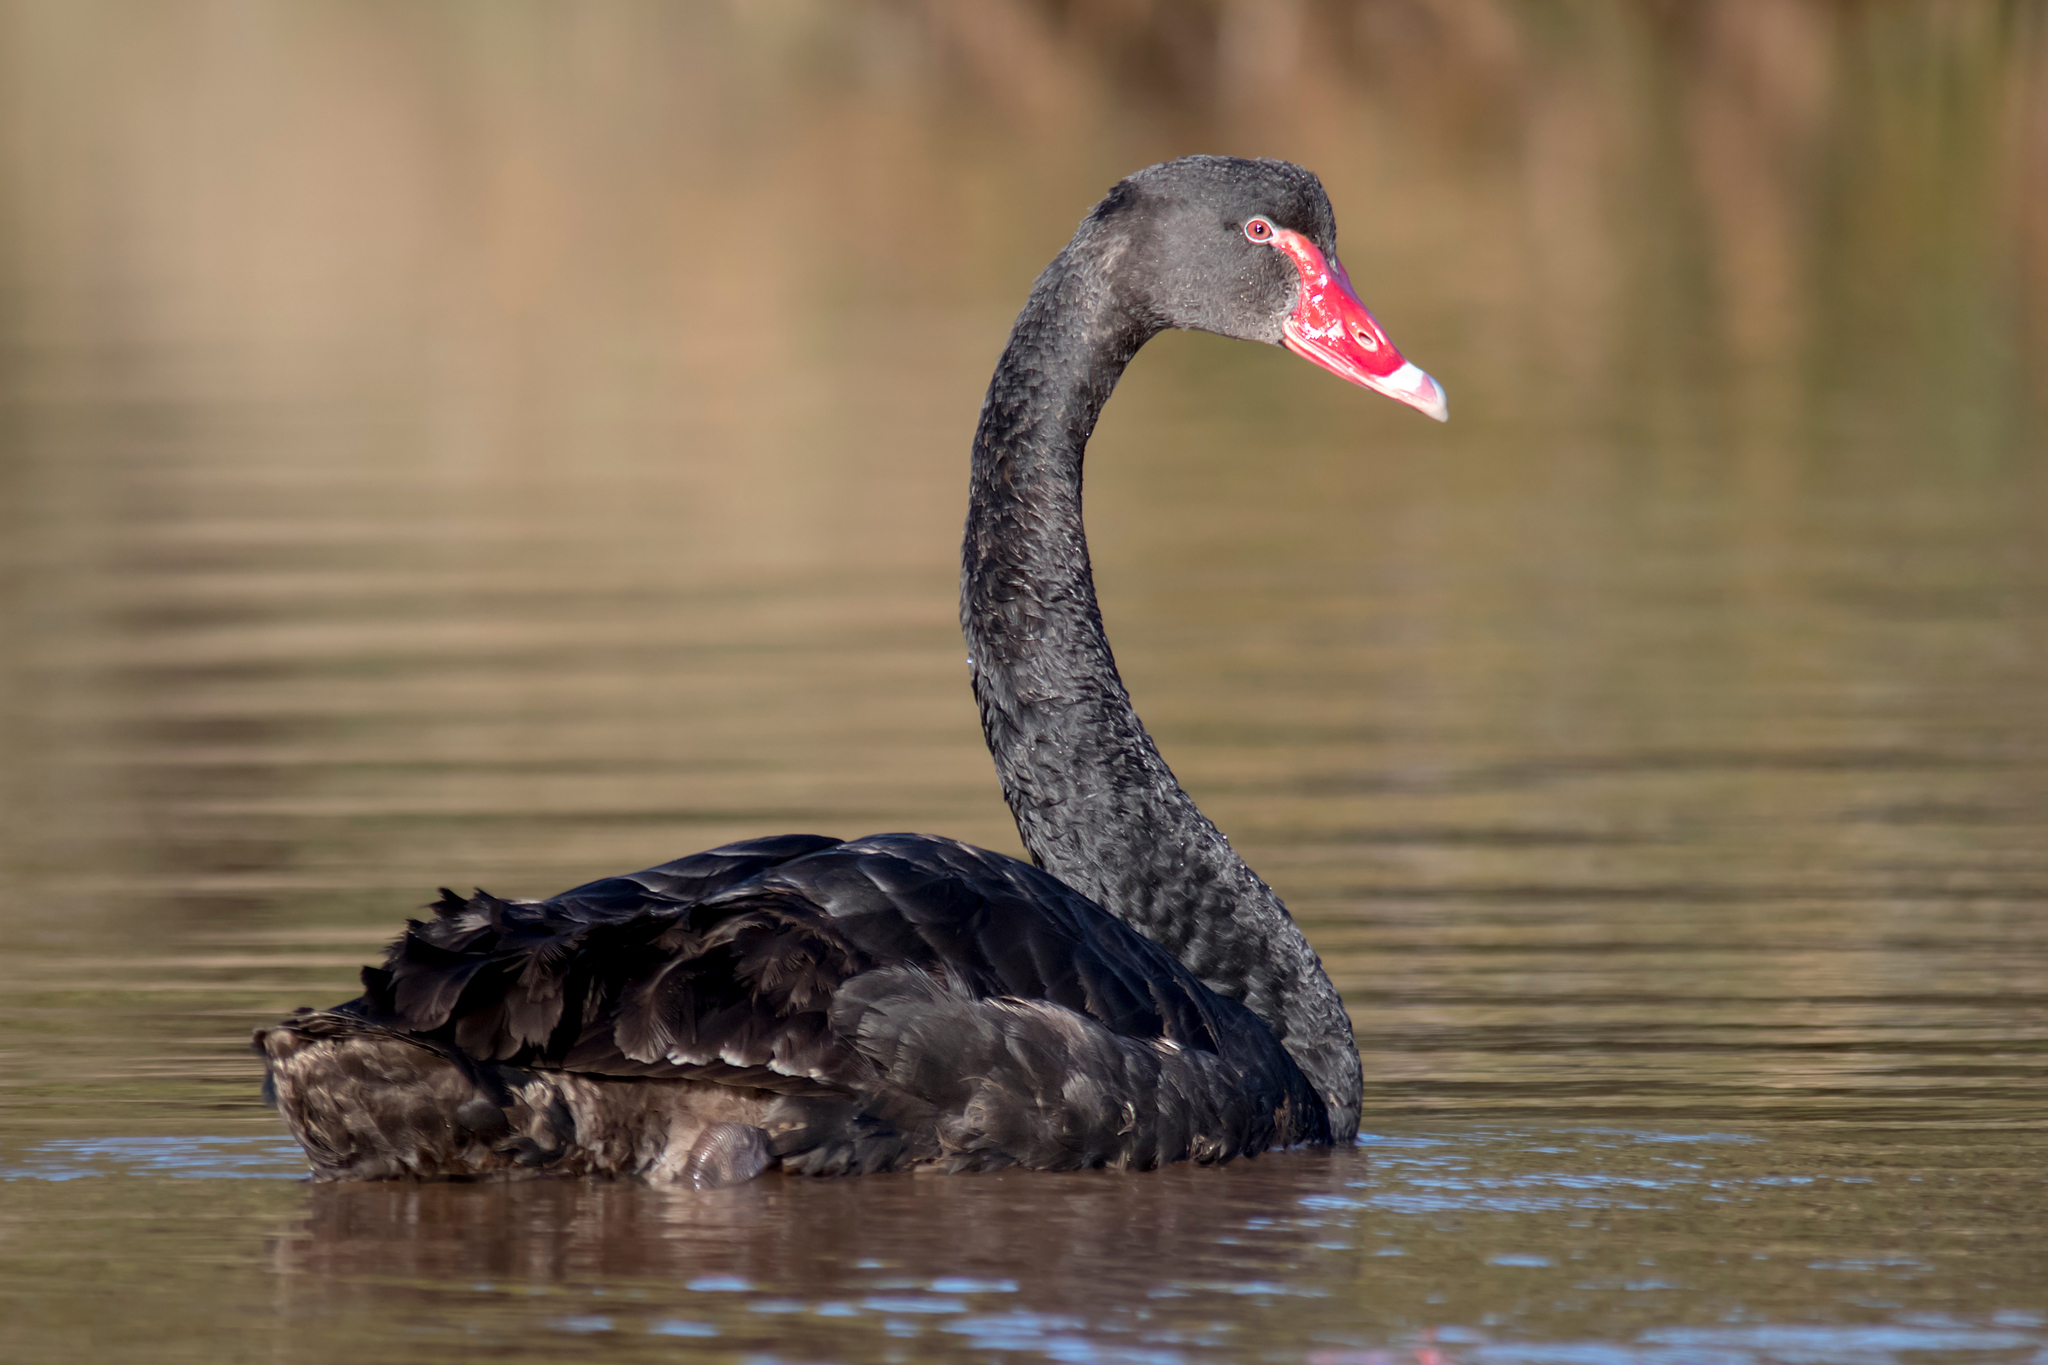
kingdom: Animalia
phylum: Chordata
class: Aves
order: Anseriformes
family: Anatidae
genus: Cygnus
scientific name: Cygnus atratus
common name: Black swan
